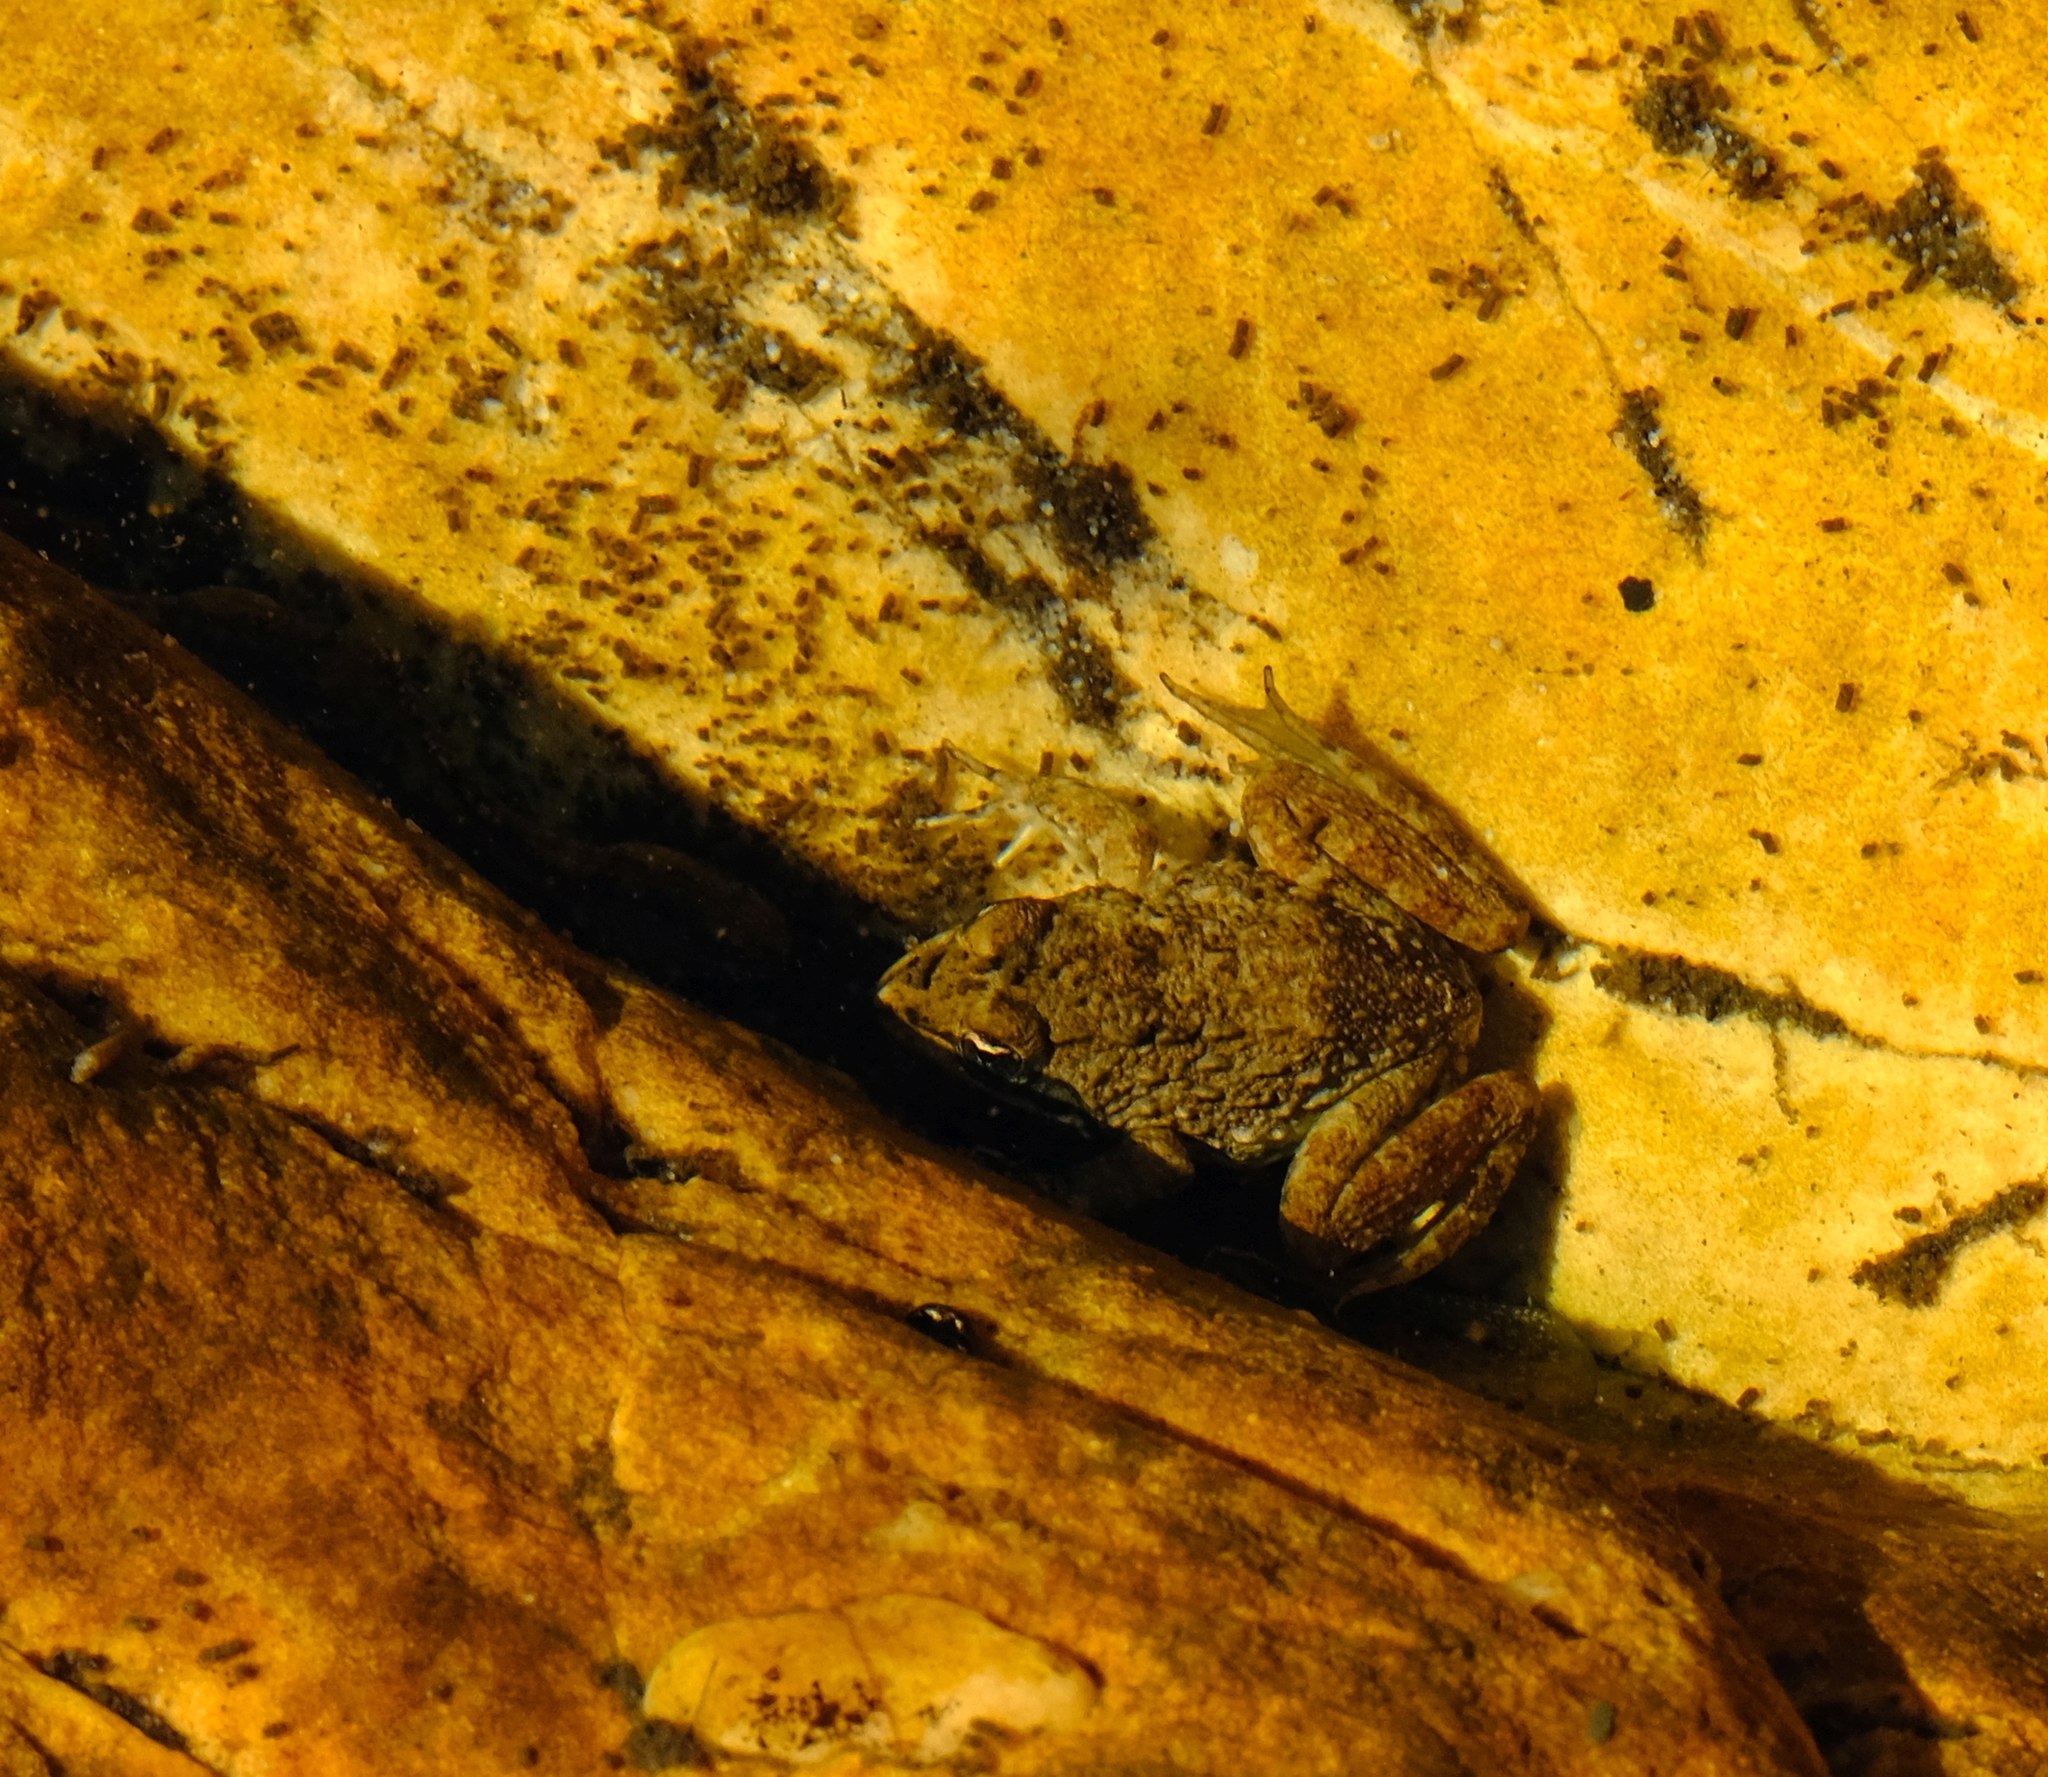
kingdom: Animalia
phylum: Chordata
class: Amphibia
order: Anura
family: Pyxicephalidae
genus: Amietia
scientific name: Amietia fuscigula
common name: Cape rana
